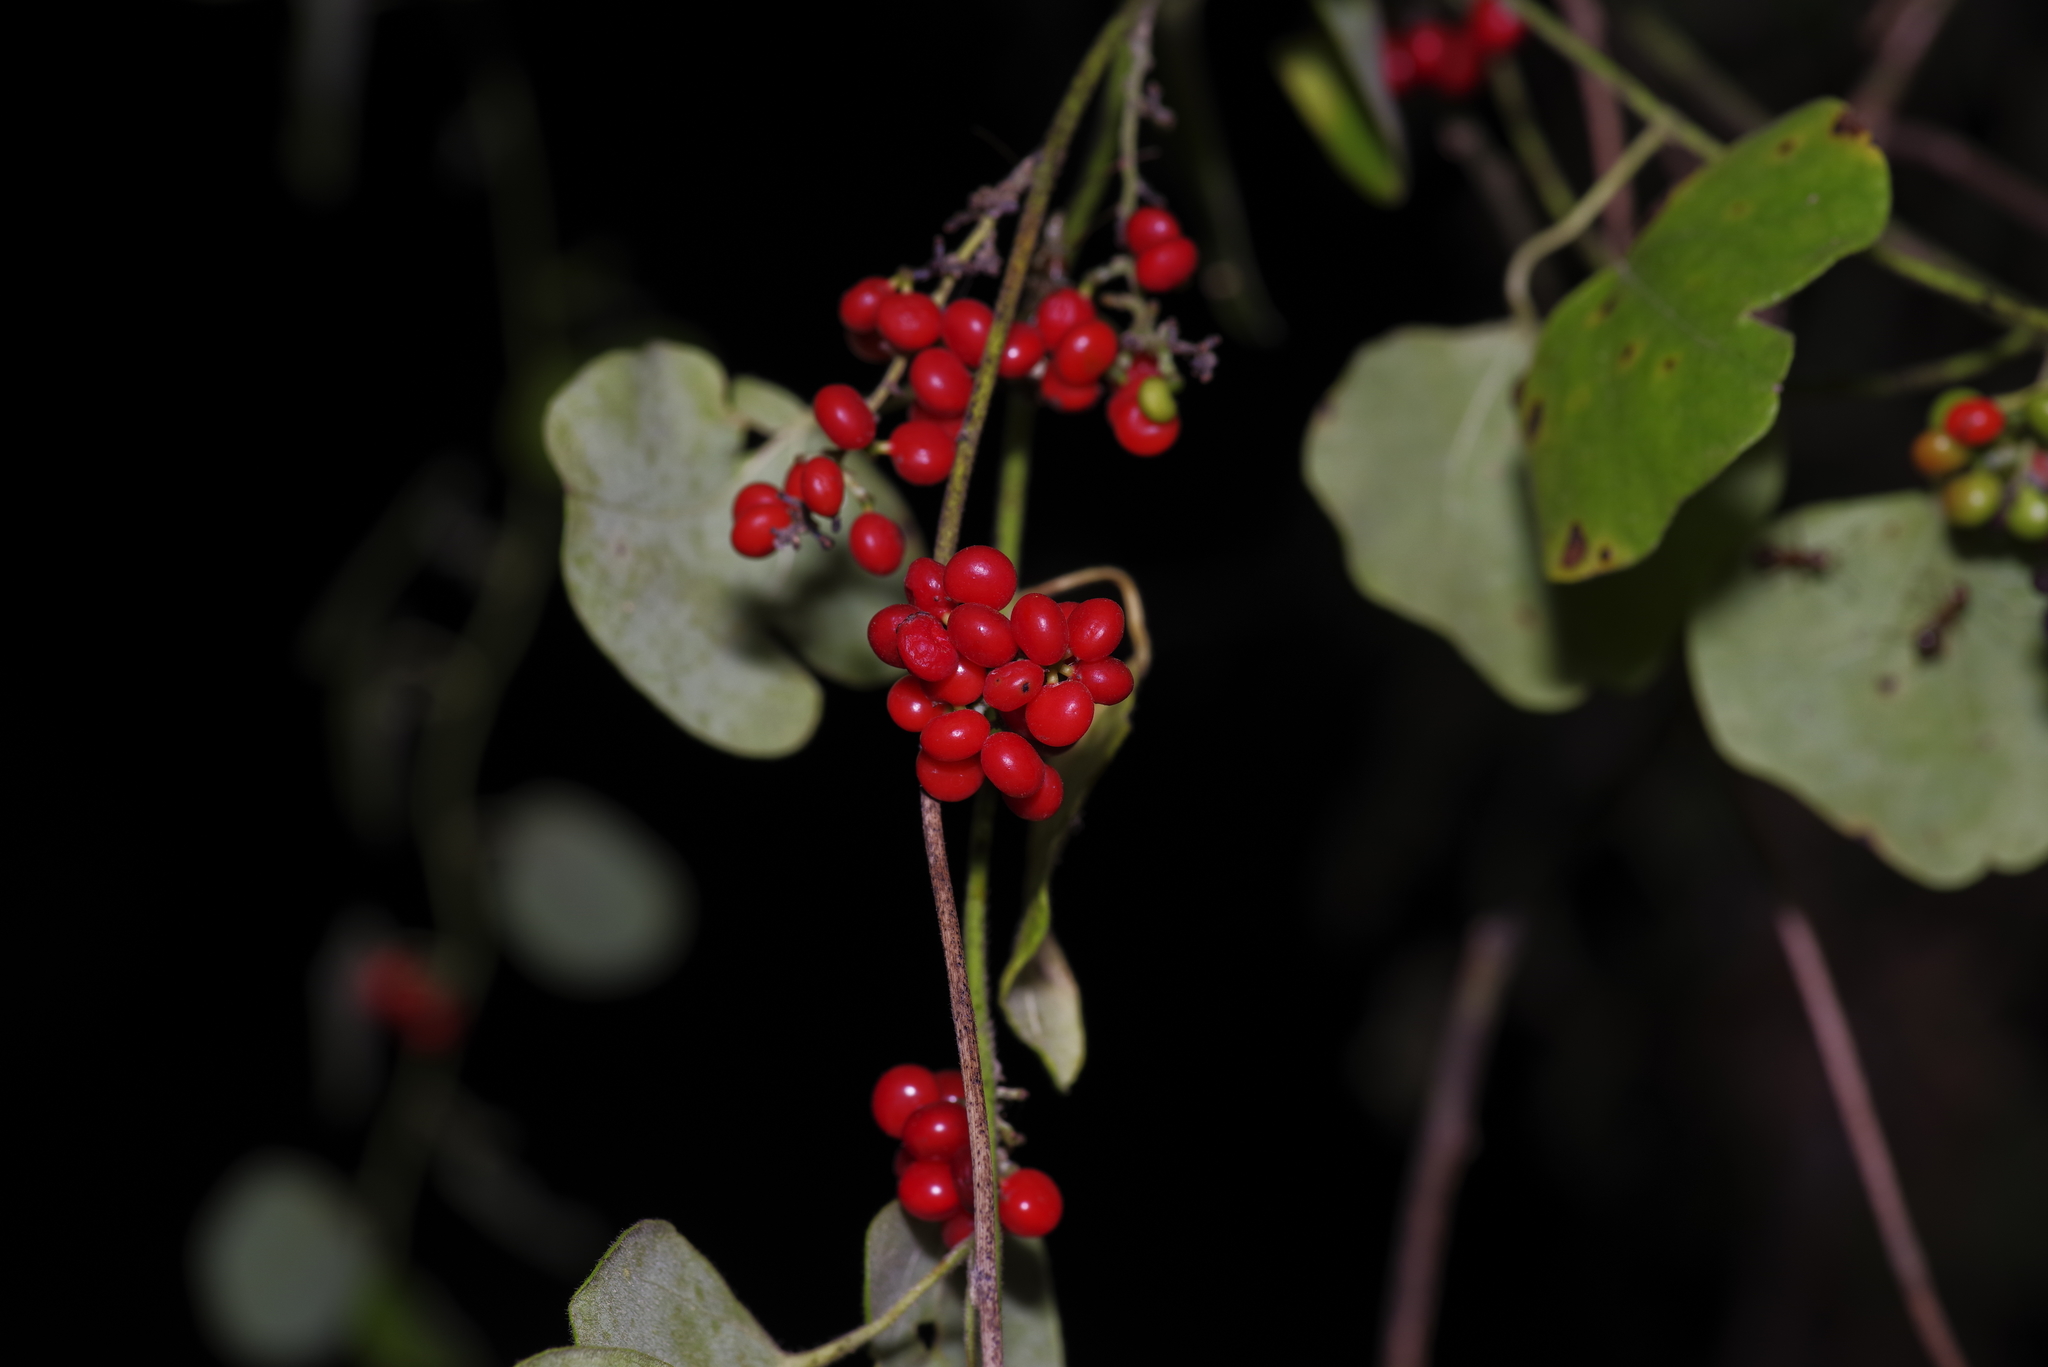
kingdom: Plantae
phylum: Tracheophyta
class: Magnoliopsida
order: Ranunculales
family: Menispermaceae
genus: Cocculus
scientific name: Cocculus carolinus
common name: Carolina moonseed
